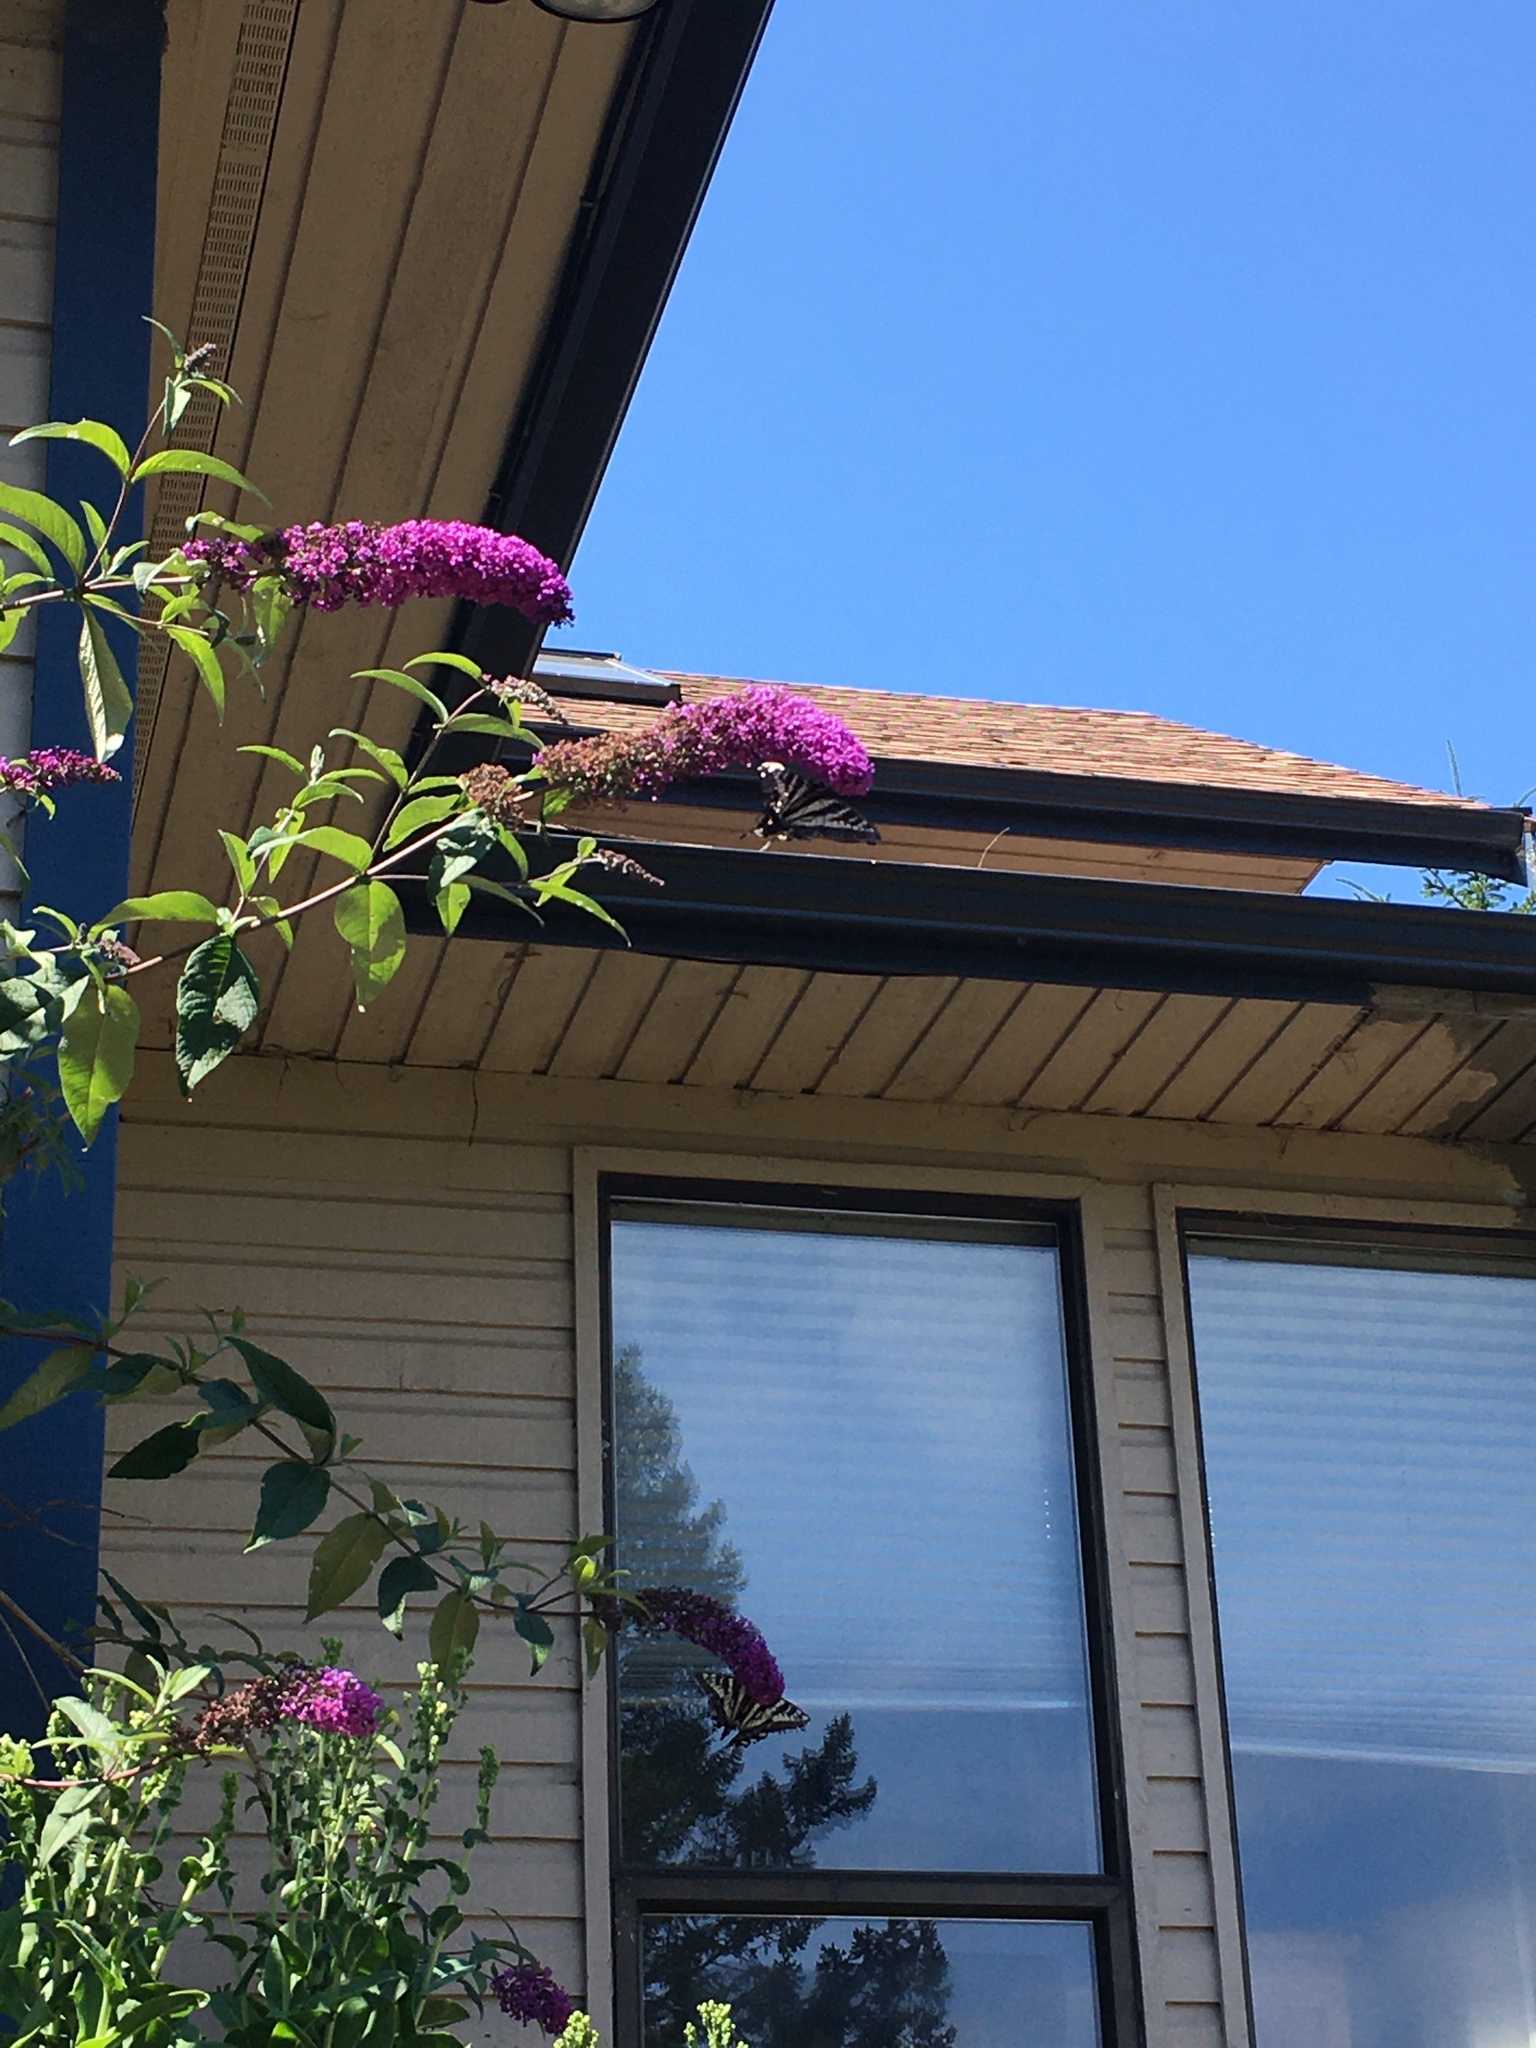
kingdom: Animalia
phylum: Arthropoda
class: Insecta
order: Lepidoptera
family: Papilionidae
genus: Papilio
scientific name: Papilio eurymedon
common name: Pale tiger swallowtail
